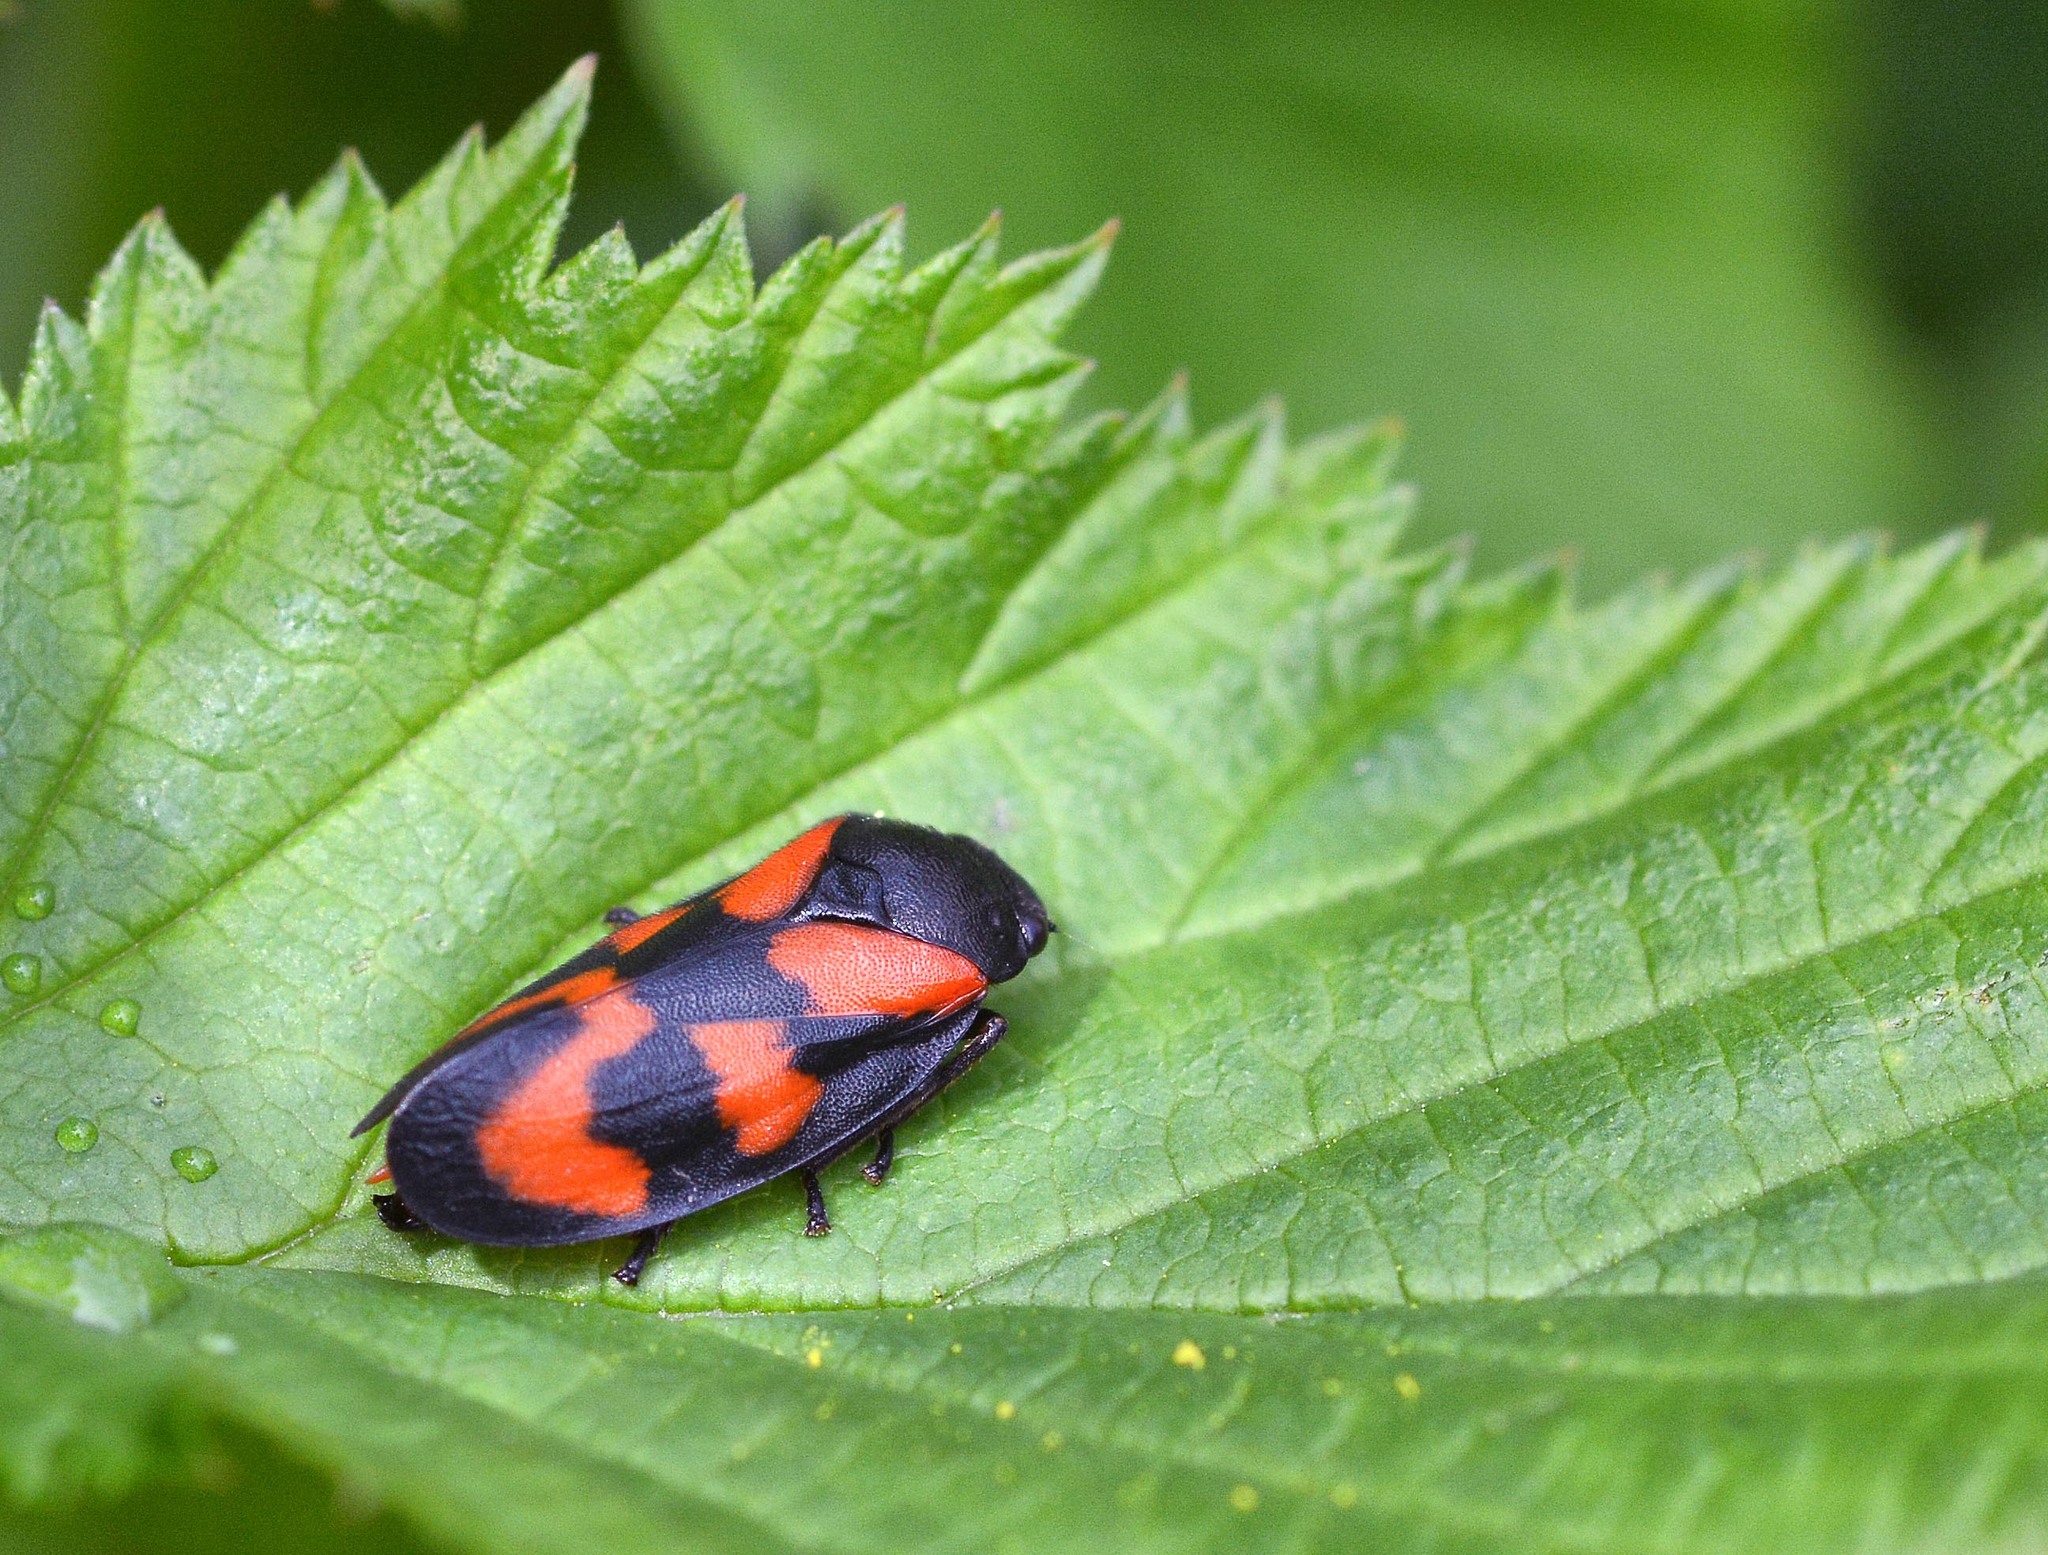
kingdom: Animalia
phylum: Arthropoda
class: Insecta
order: Hemiptera
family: Cercopidae
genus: Cercopis
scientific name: Cercopis vulnerata
